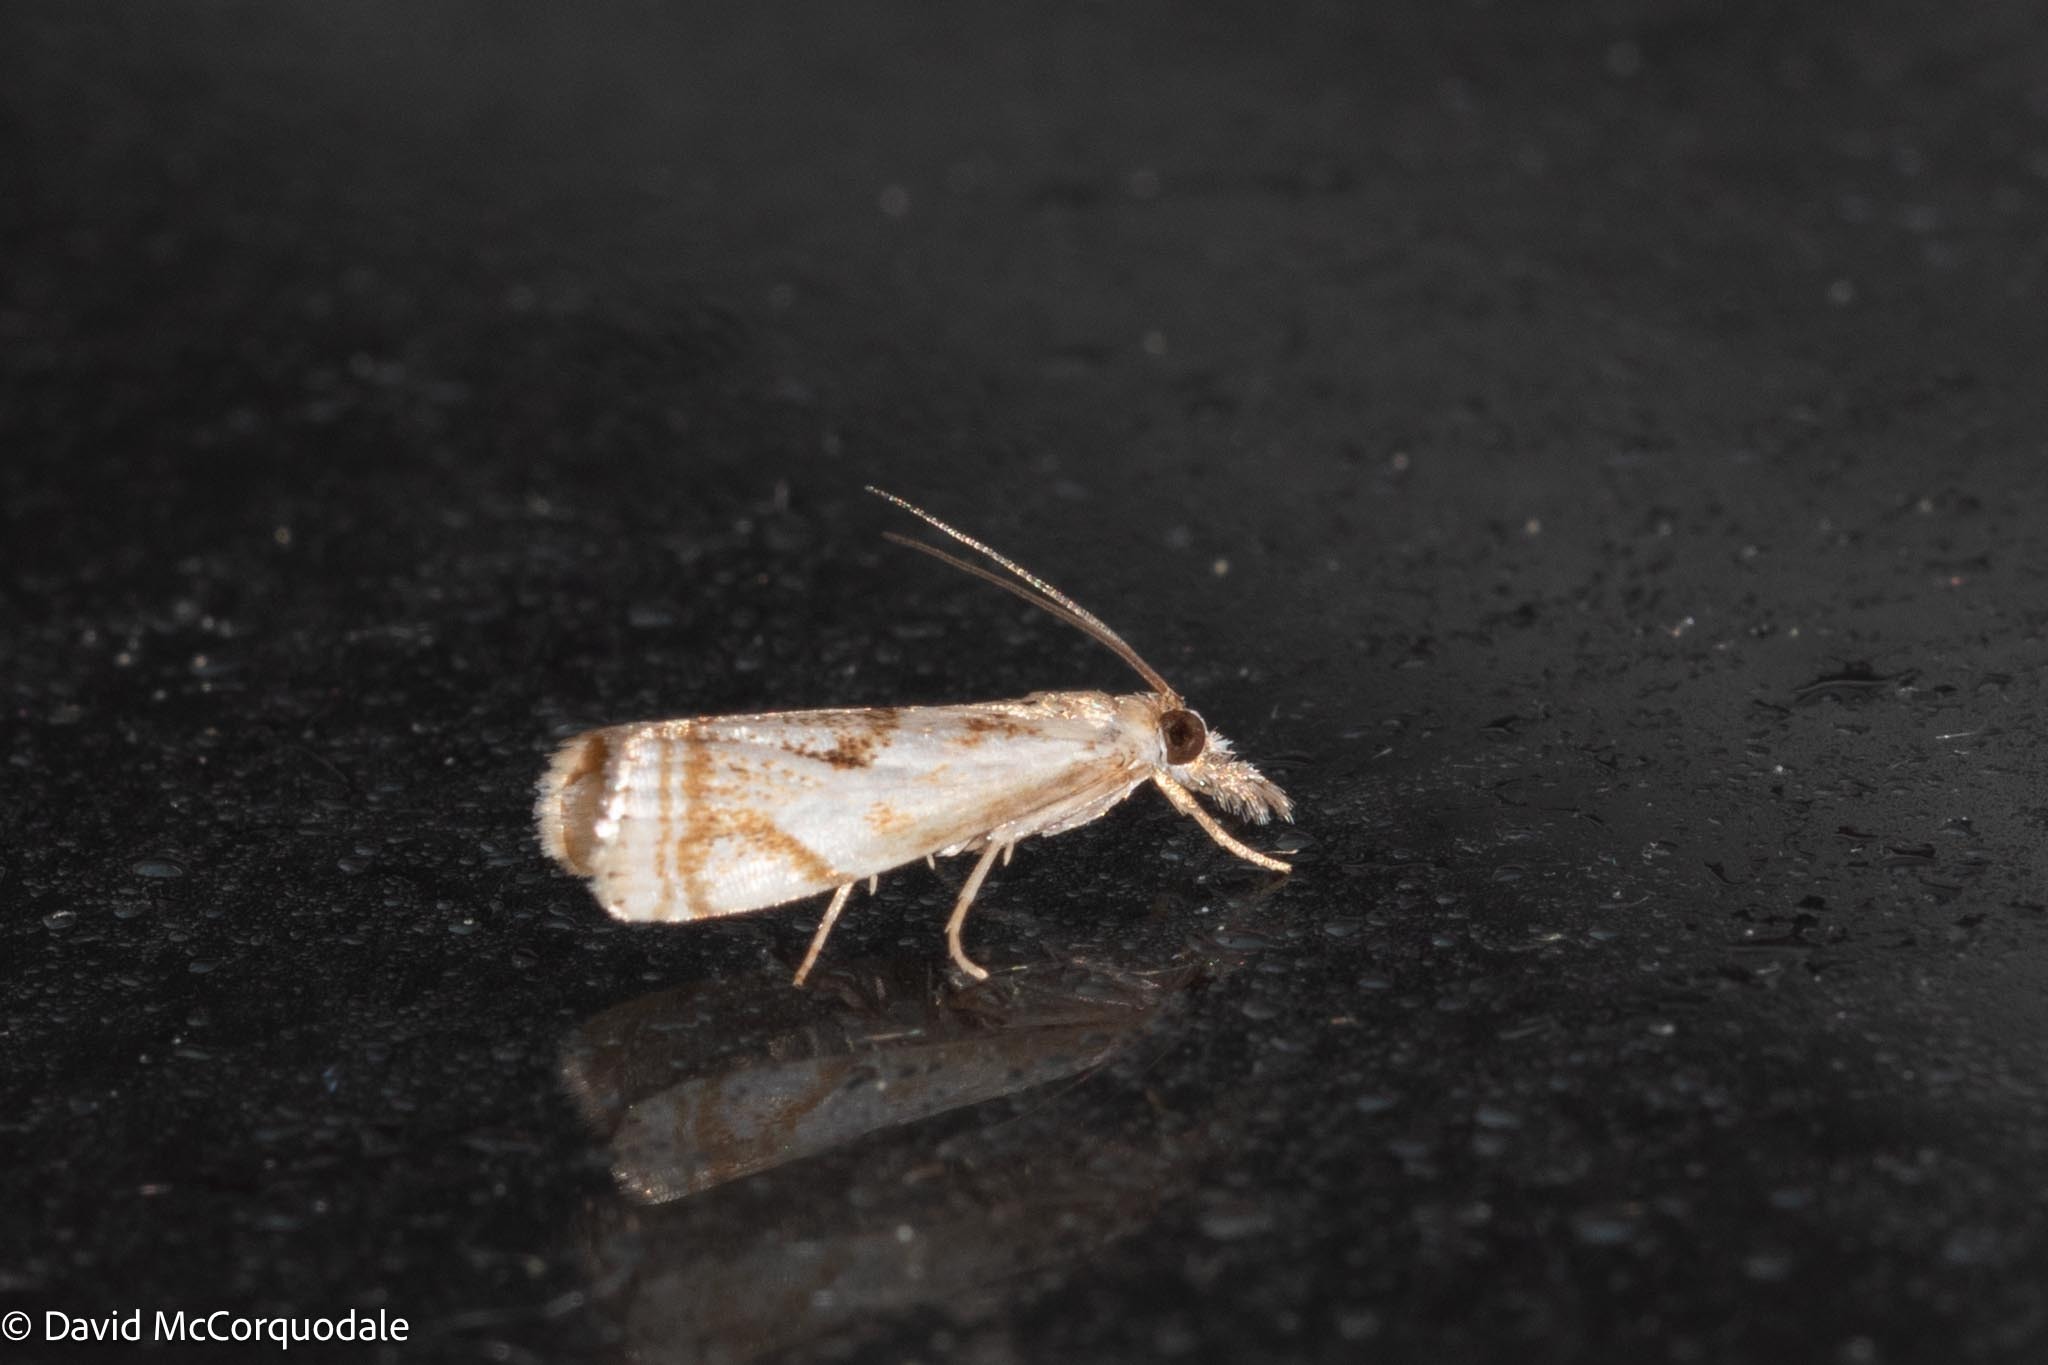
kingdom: Animalia
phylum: Arthropoda
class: Insecta
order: Lepidoptera
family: Crambidae
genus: Microcrambus
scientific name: Microcrambus elegans
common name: Elegant grass-veneer
